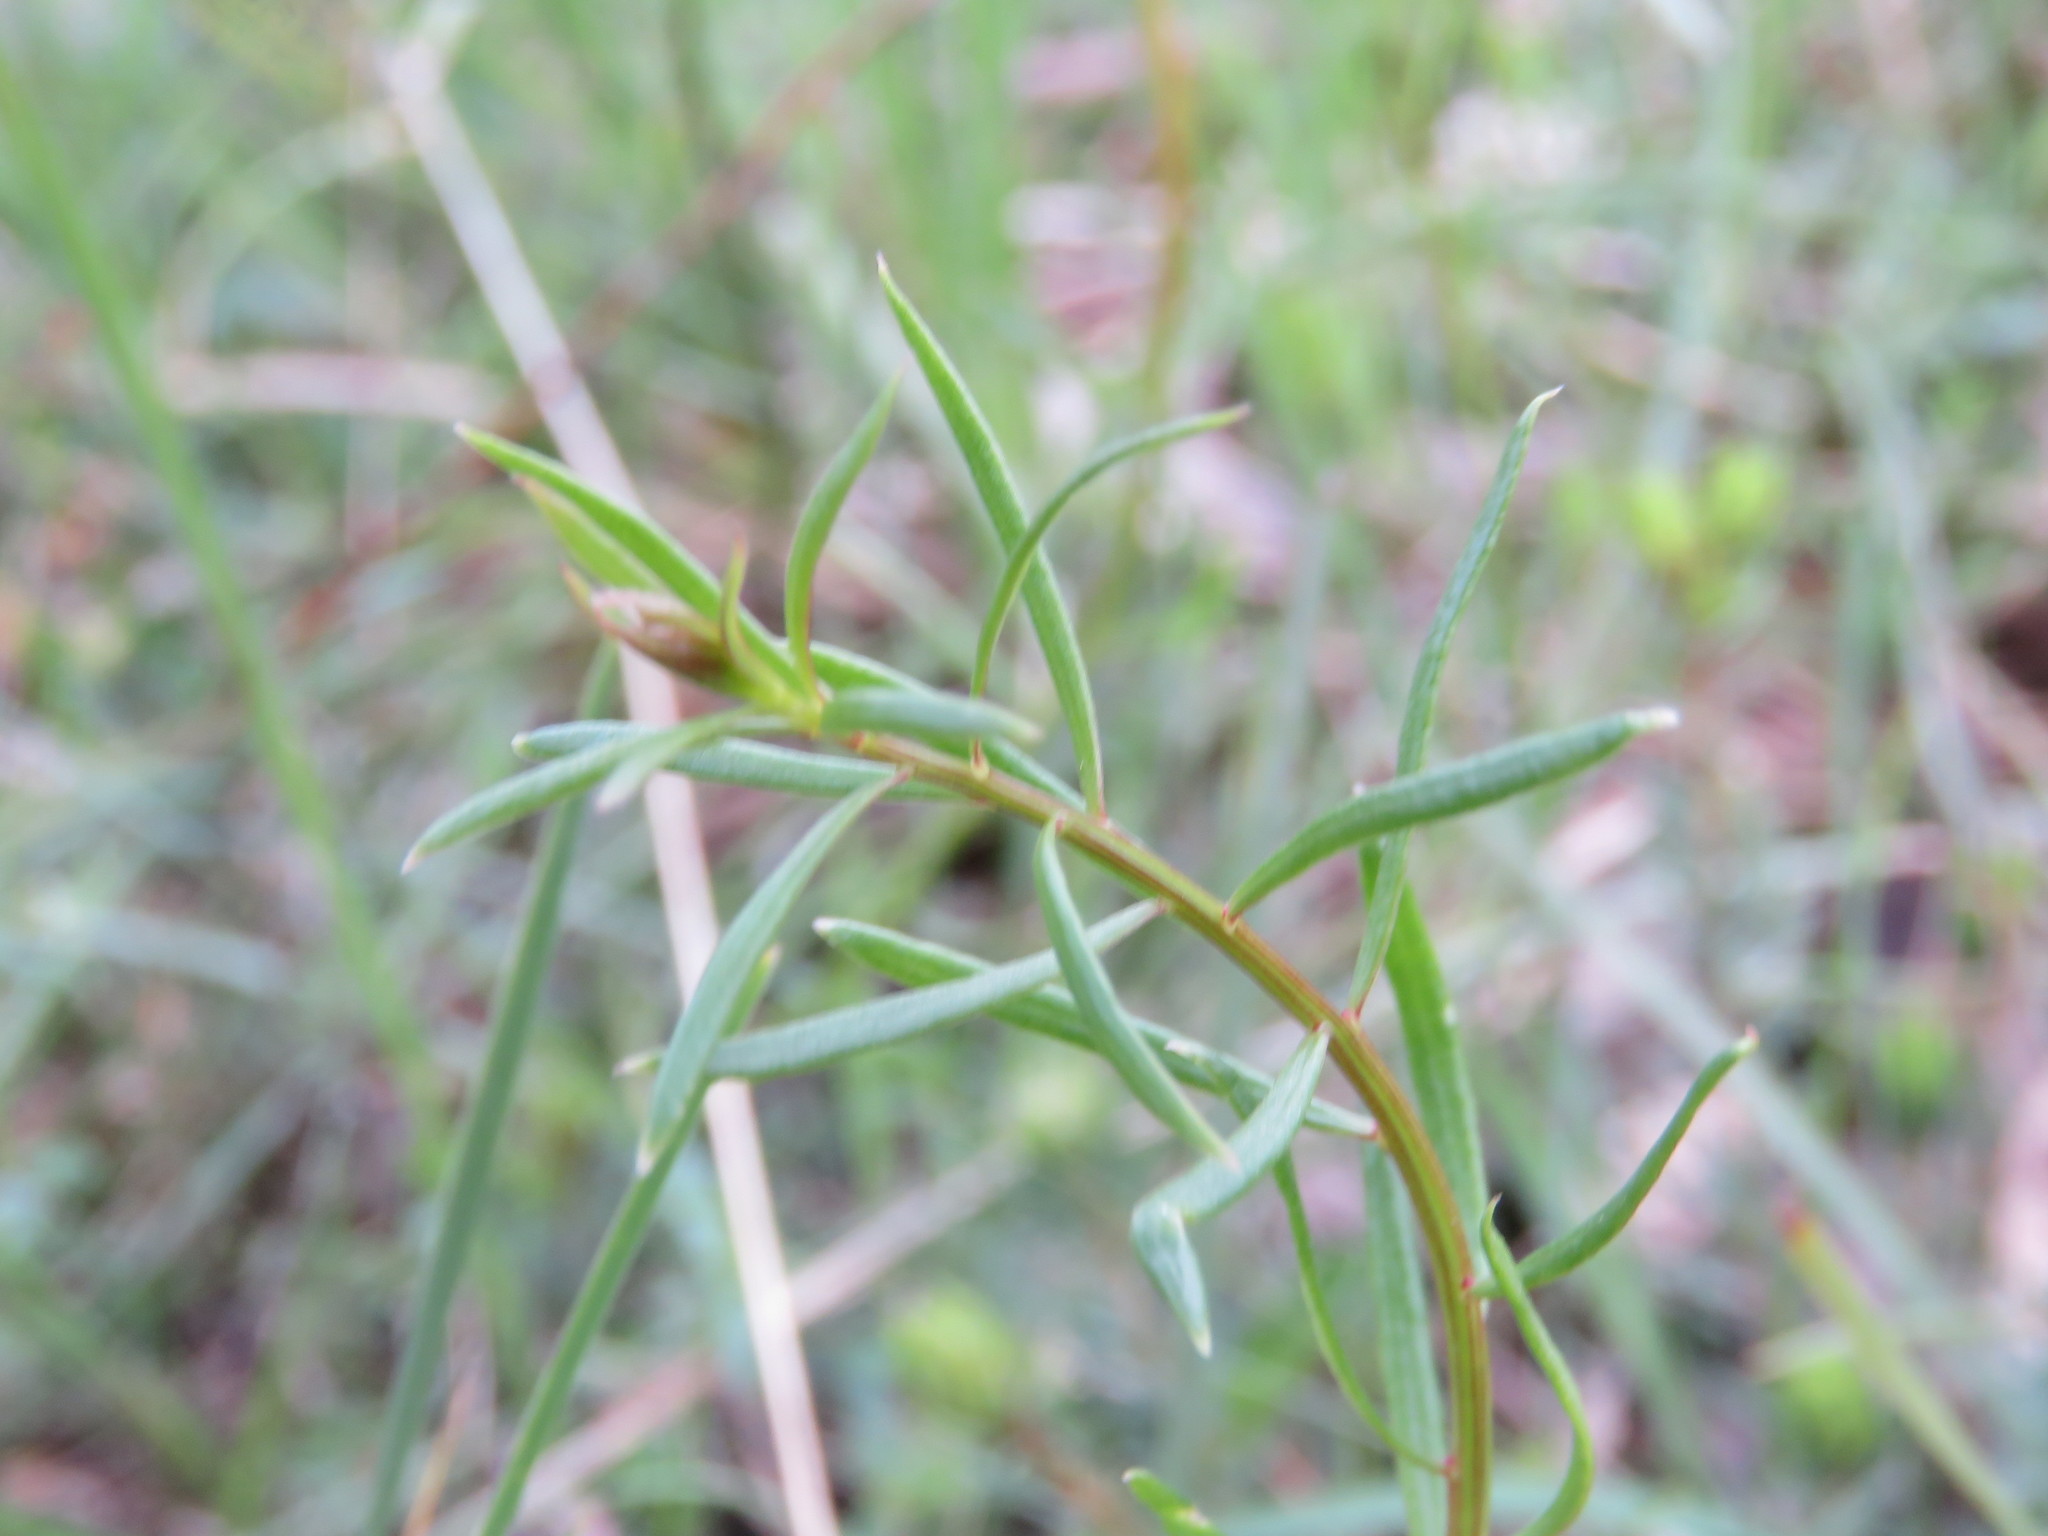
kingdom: Plantae
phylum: Tracheophyta
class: Magnoliopsida
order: Celastrales
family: Celastraceae
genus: Stackhousia
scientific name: Stackhousia monogyna
